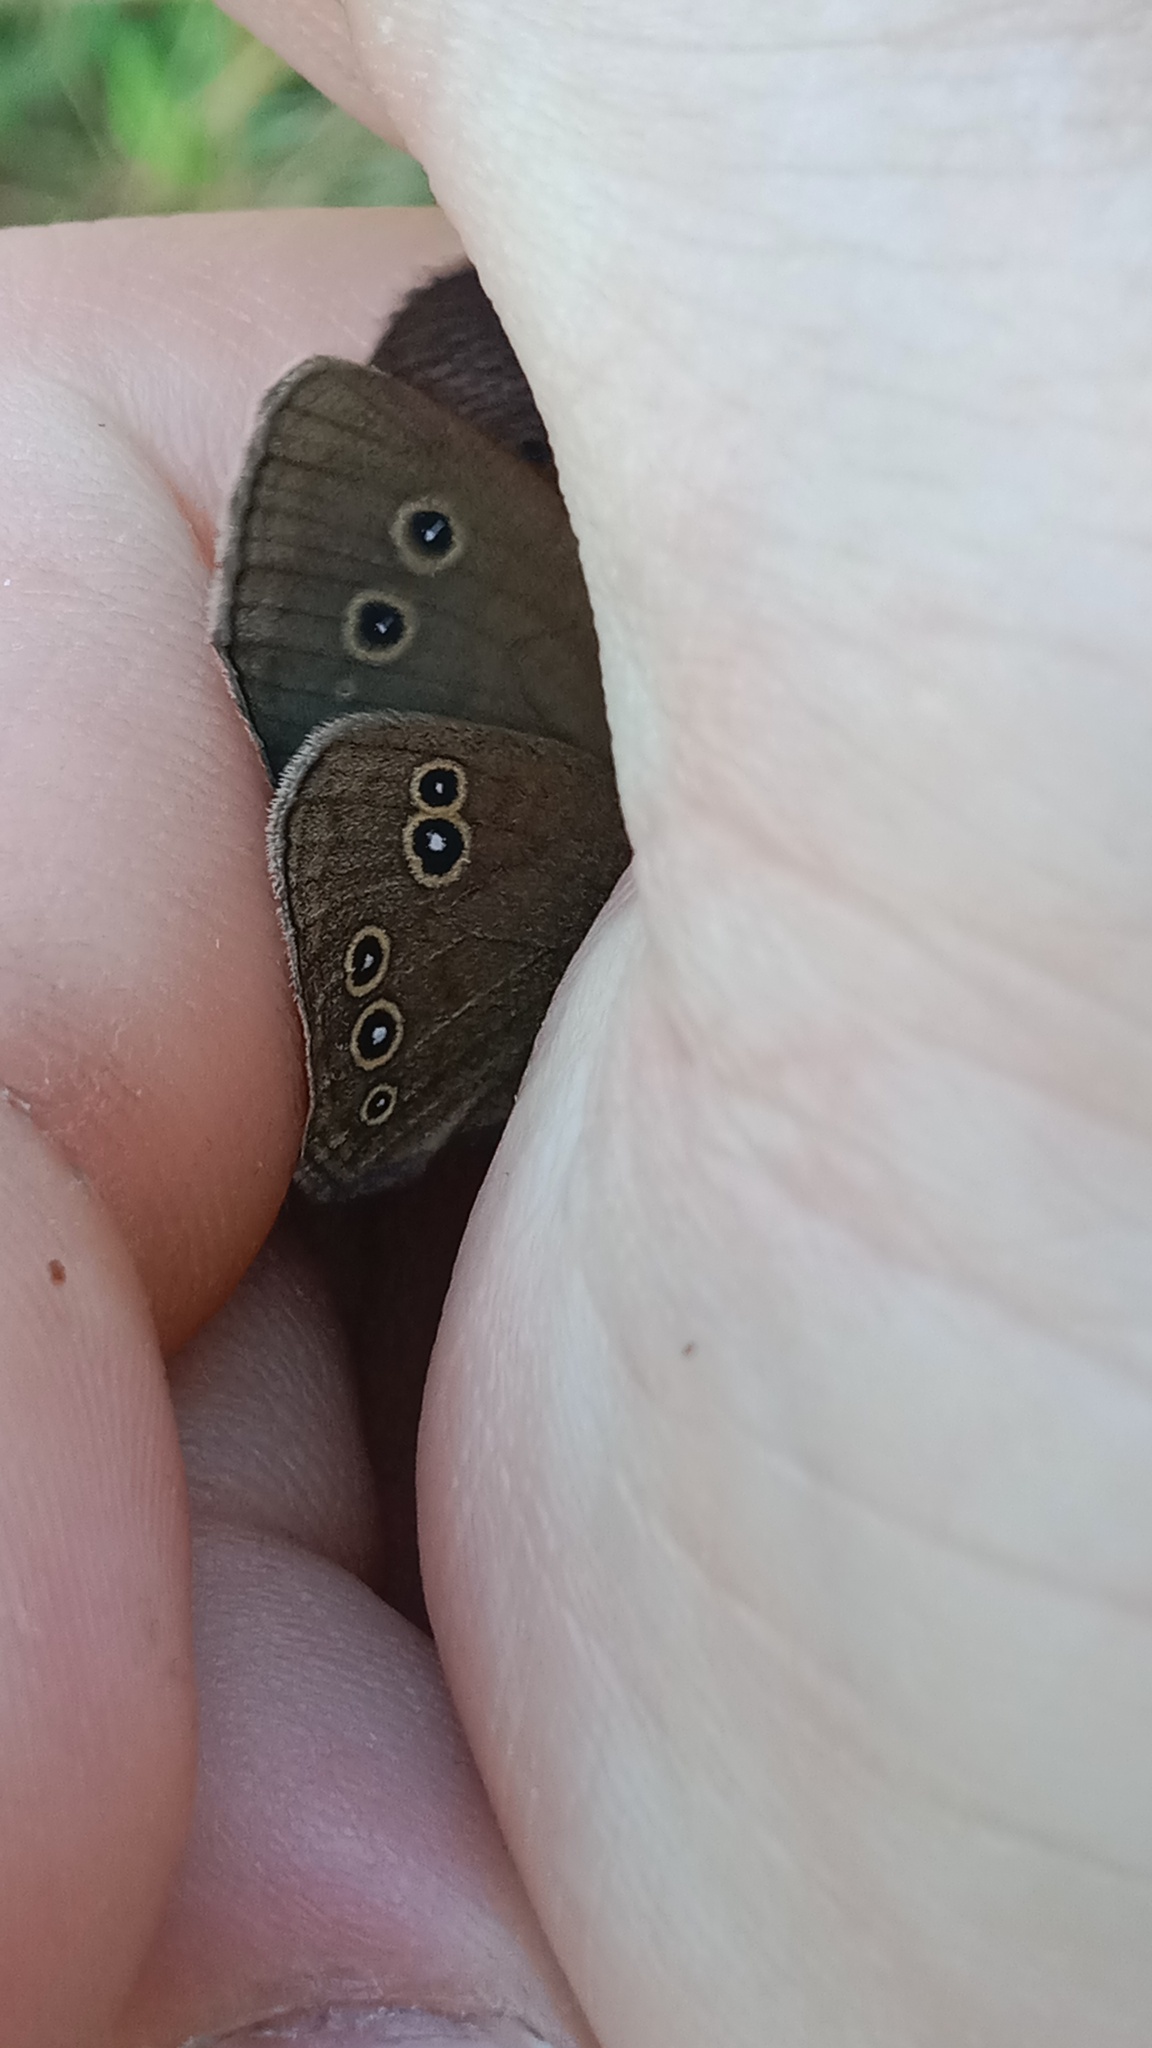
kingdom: Animalia
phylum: Arthropoda
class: Insecta
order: Lepidoptera
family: Nymphalidae
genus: Aphantopus
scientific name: Aphantopus hyperantus
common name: Ringlet
